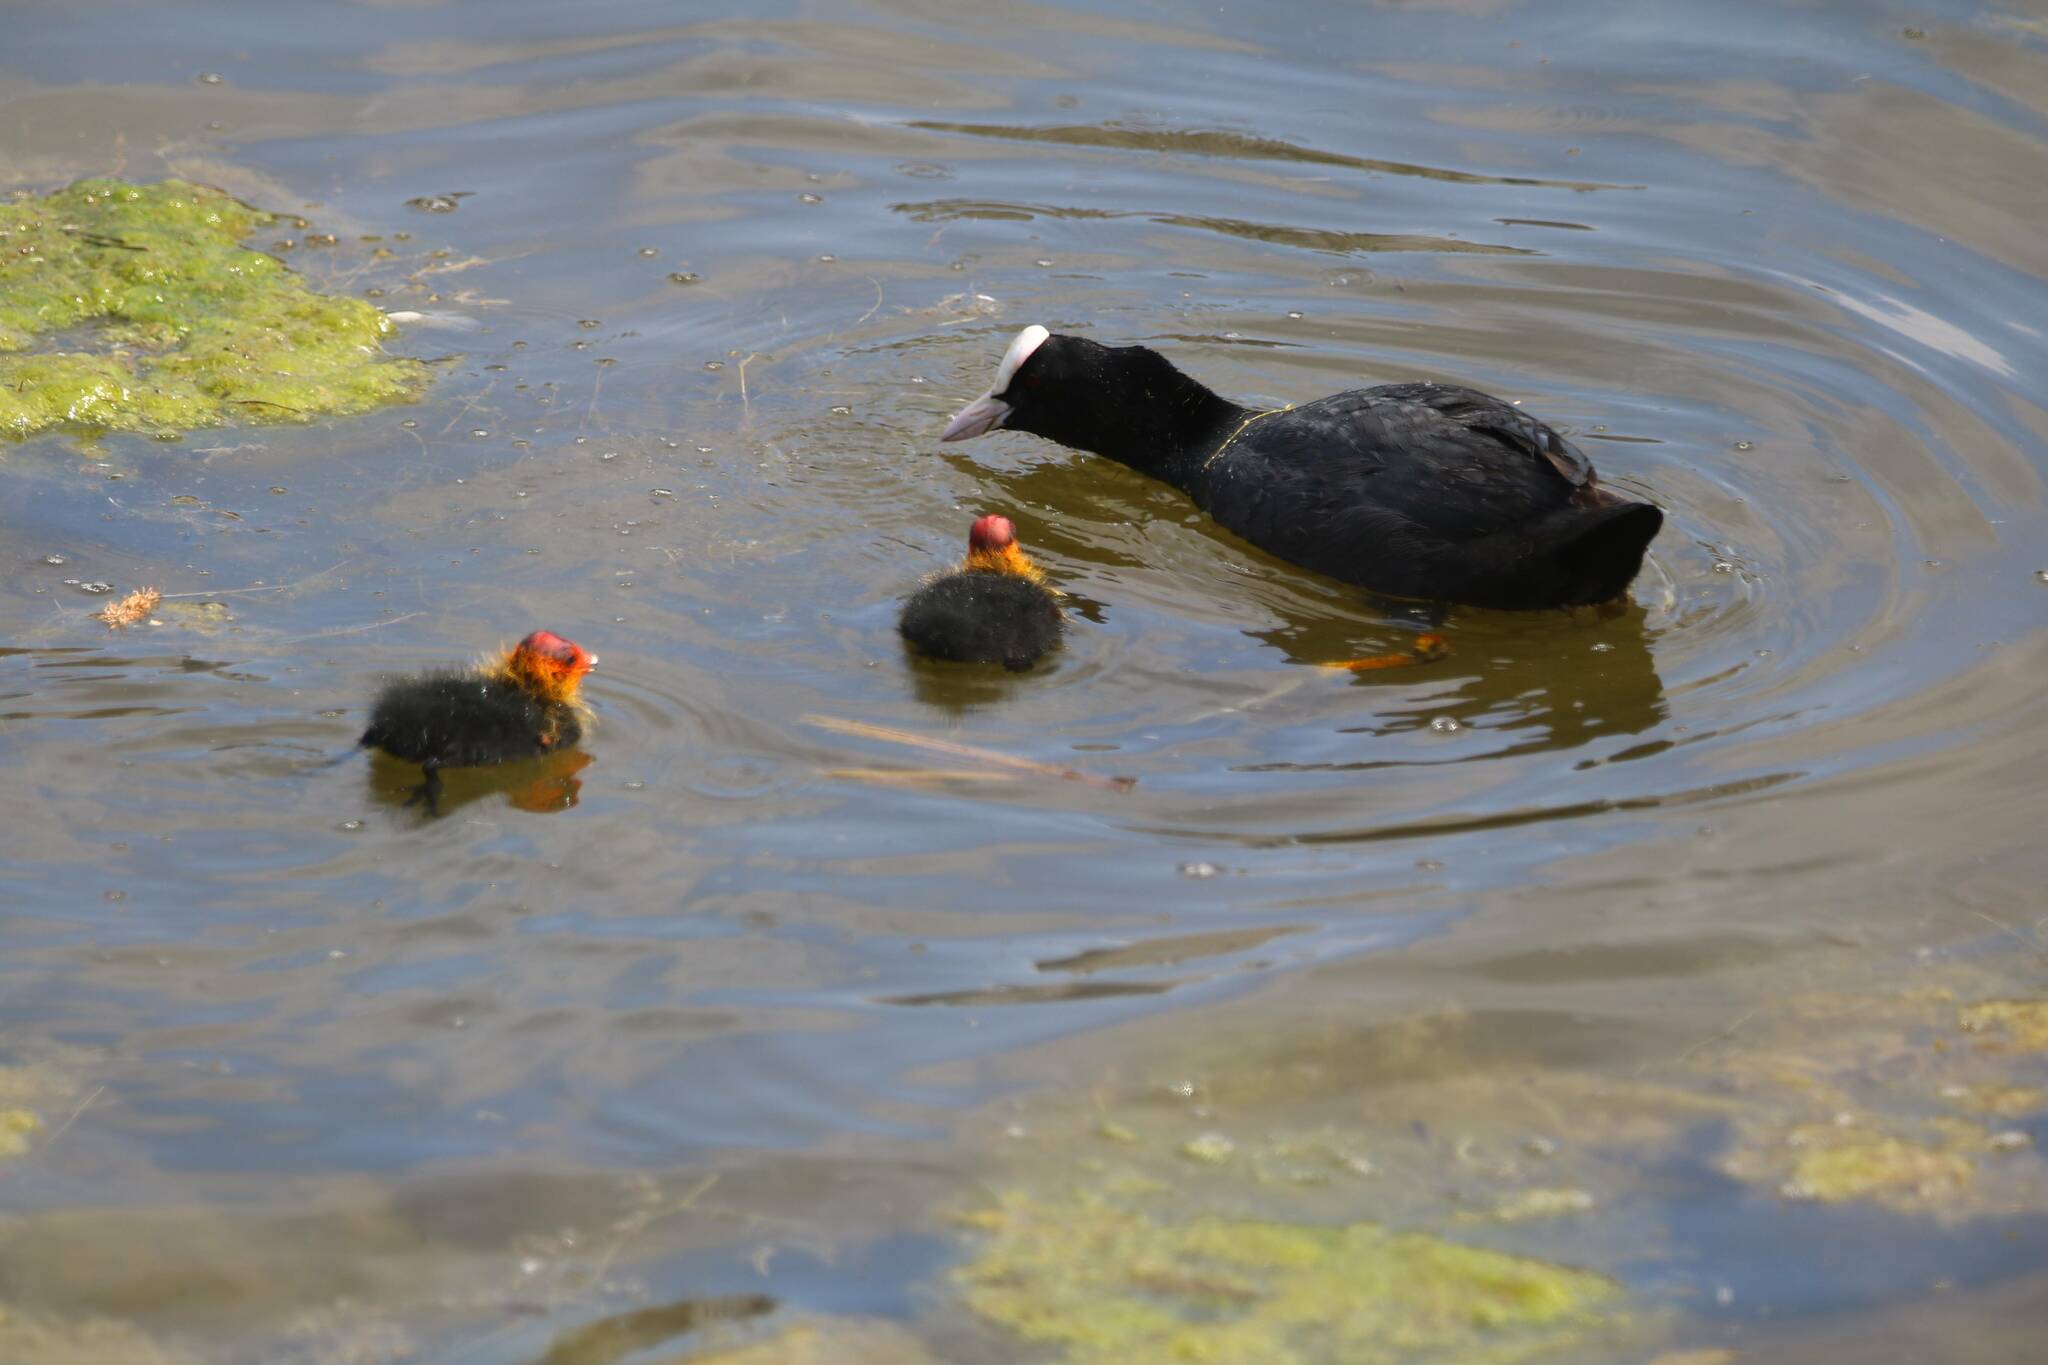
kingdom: Animalia
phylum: Chordata
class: Aves
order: Gruiformes
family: Rallidae
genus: Fulica
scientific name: Fulica atra
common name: Eurasian coot
